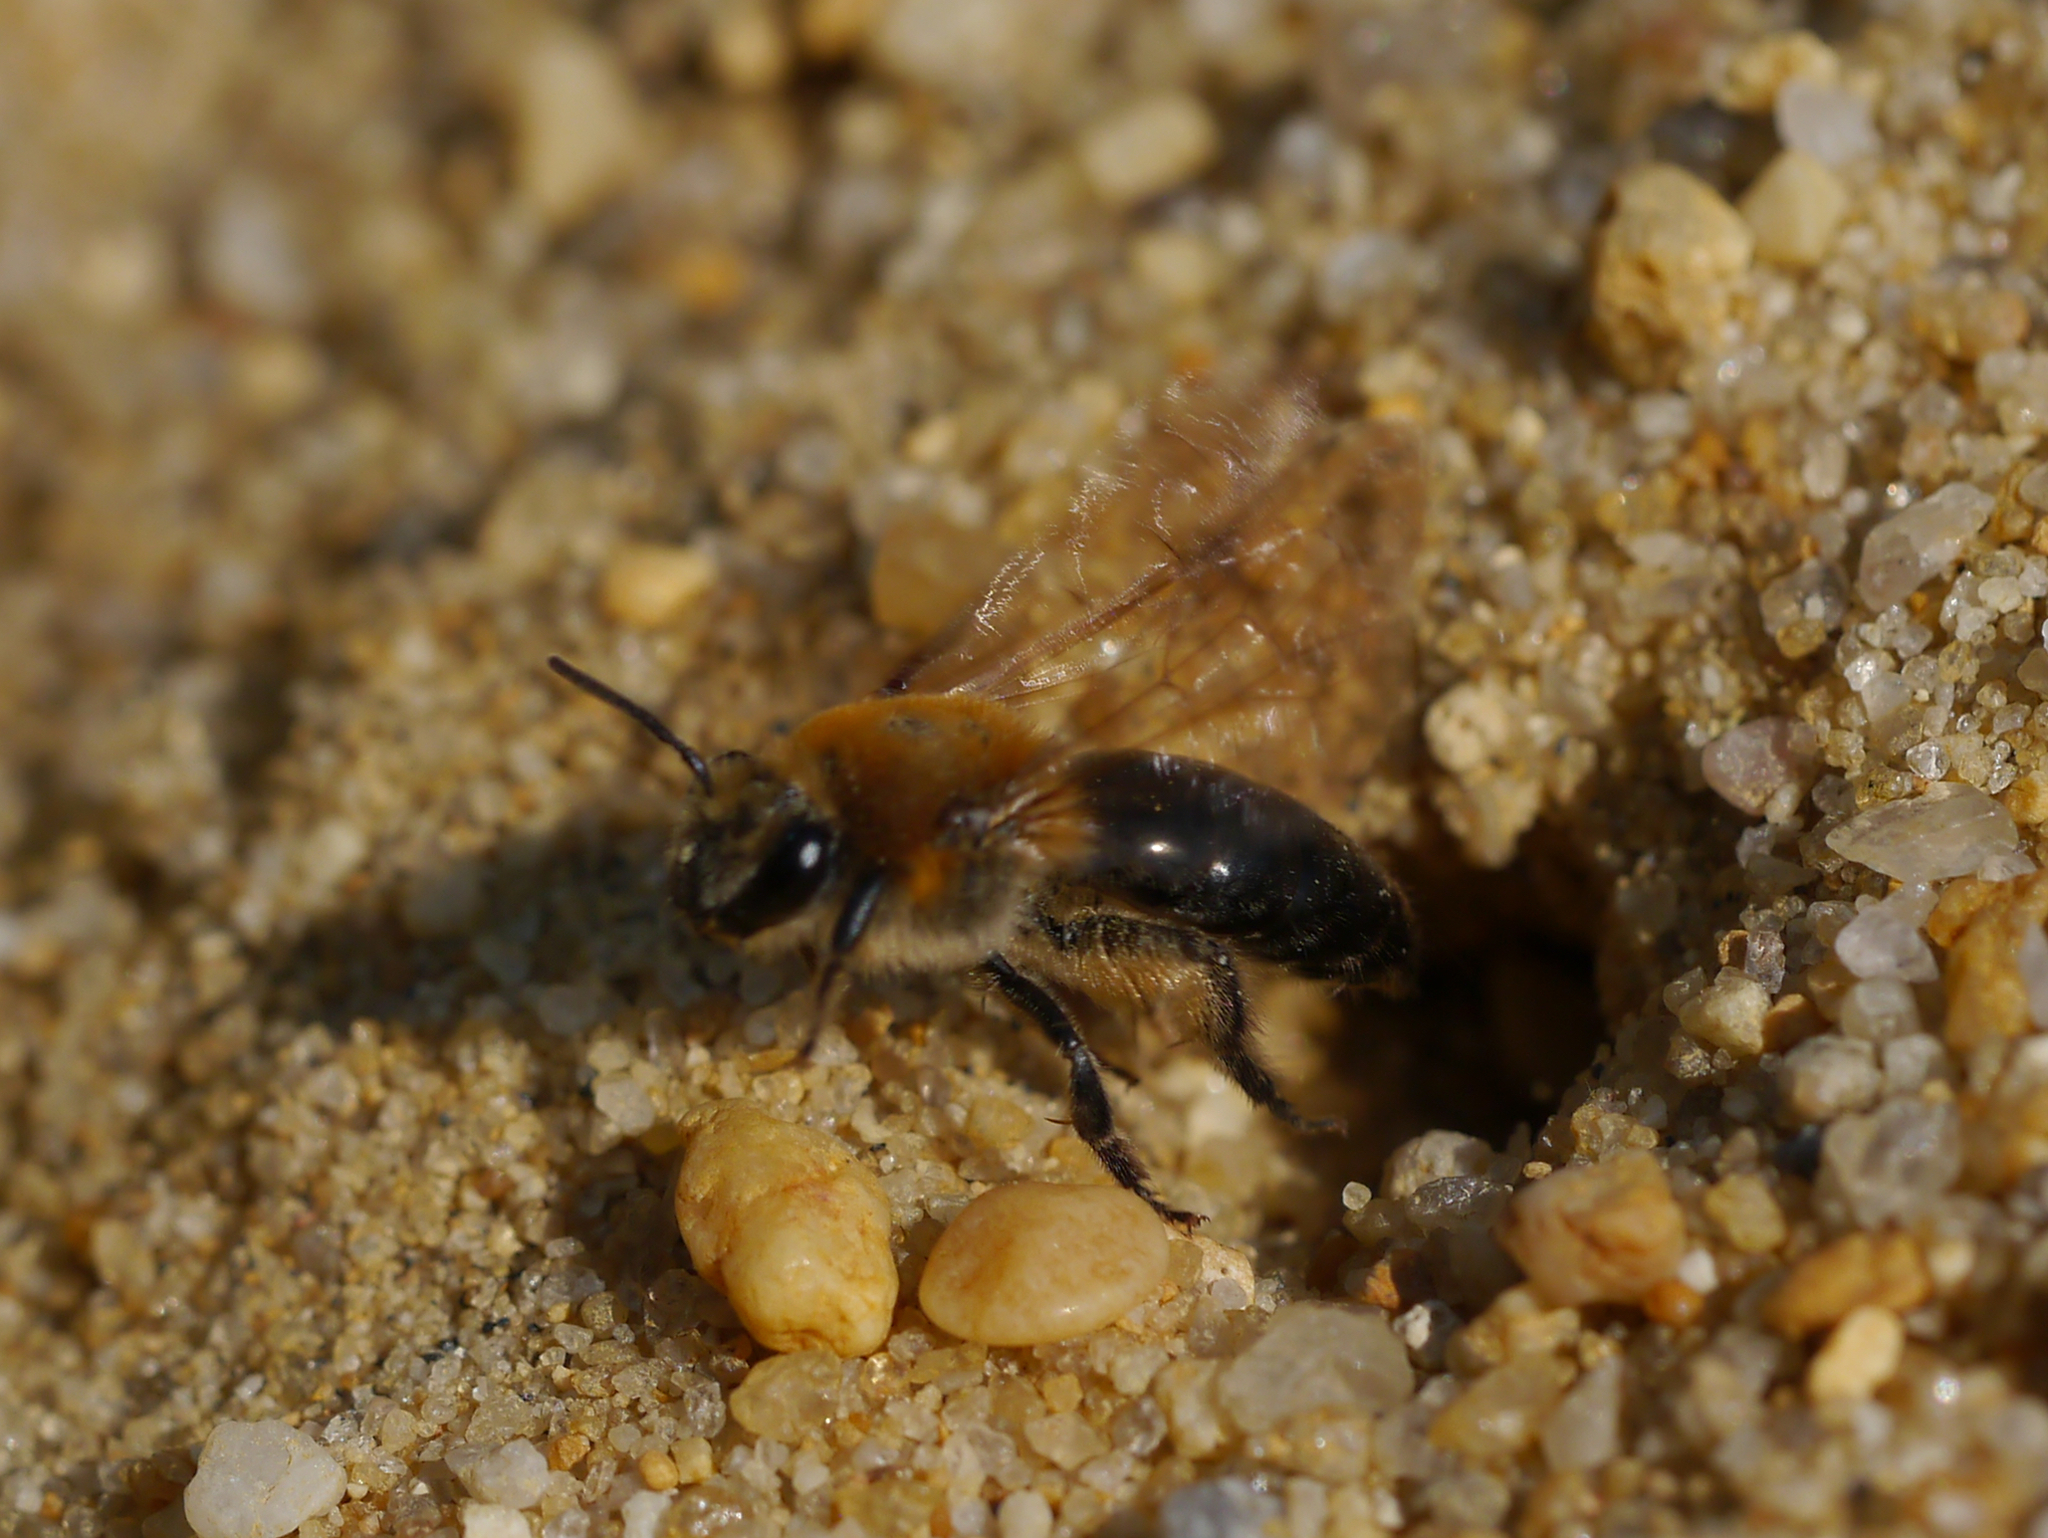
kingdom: Animalia
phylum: Arthropoda
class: Insecta
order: Hymenoptera
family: Colletidae
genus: Colletes
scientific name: Colletes thoracicus
